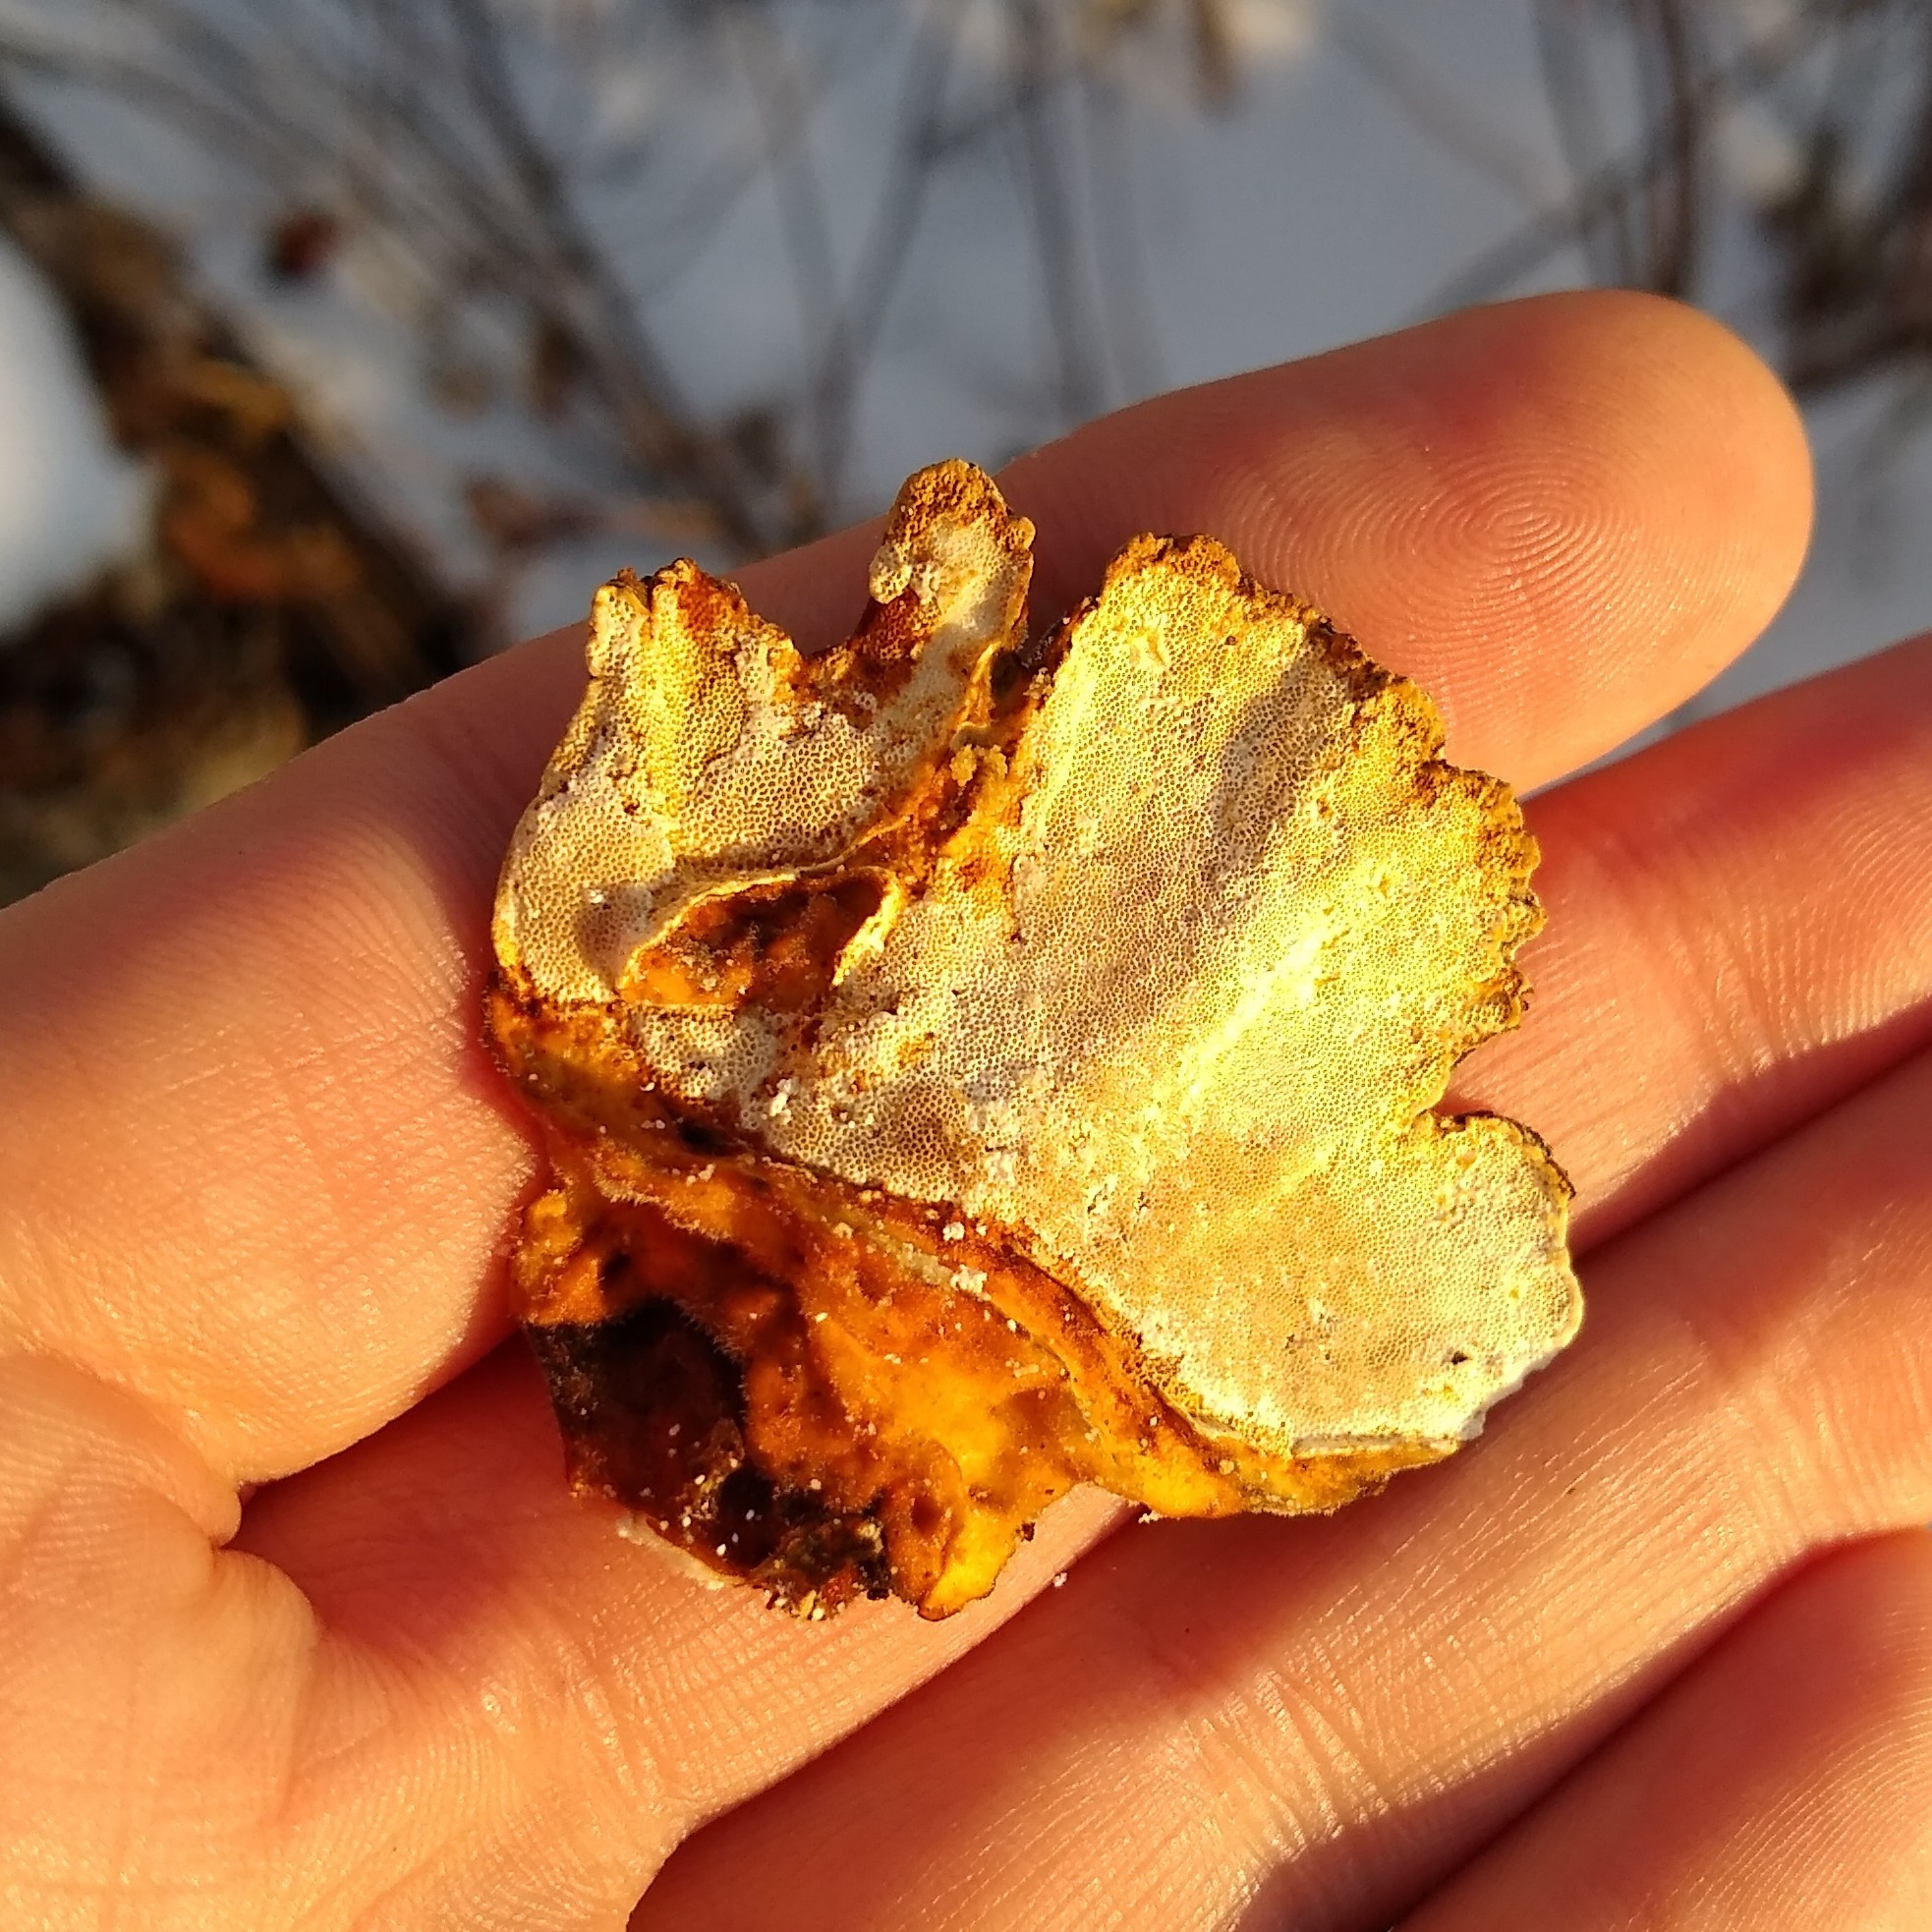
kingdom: Fungi
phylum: Basidiomycota
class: Agaricomycetes
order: Polyporales
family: Polyporaceae
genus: Trametes
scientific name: Trametes versicolor
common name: Turkeytail
